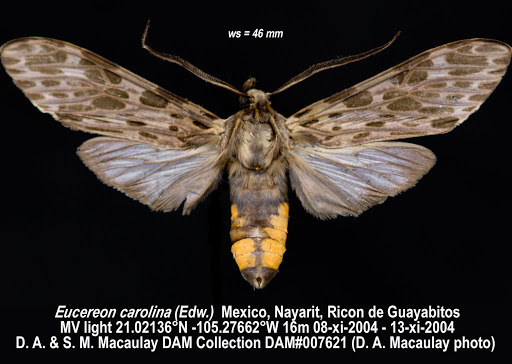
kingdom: Animalia
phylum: Arthropoda
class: Insecta
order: Lepidoptera
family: Erebidae
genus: Eucereon
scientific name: Eucereon carolina
